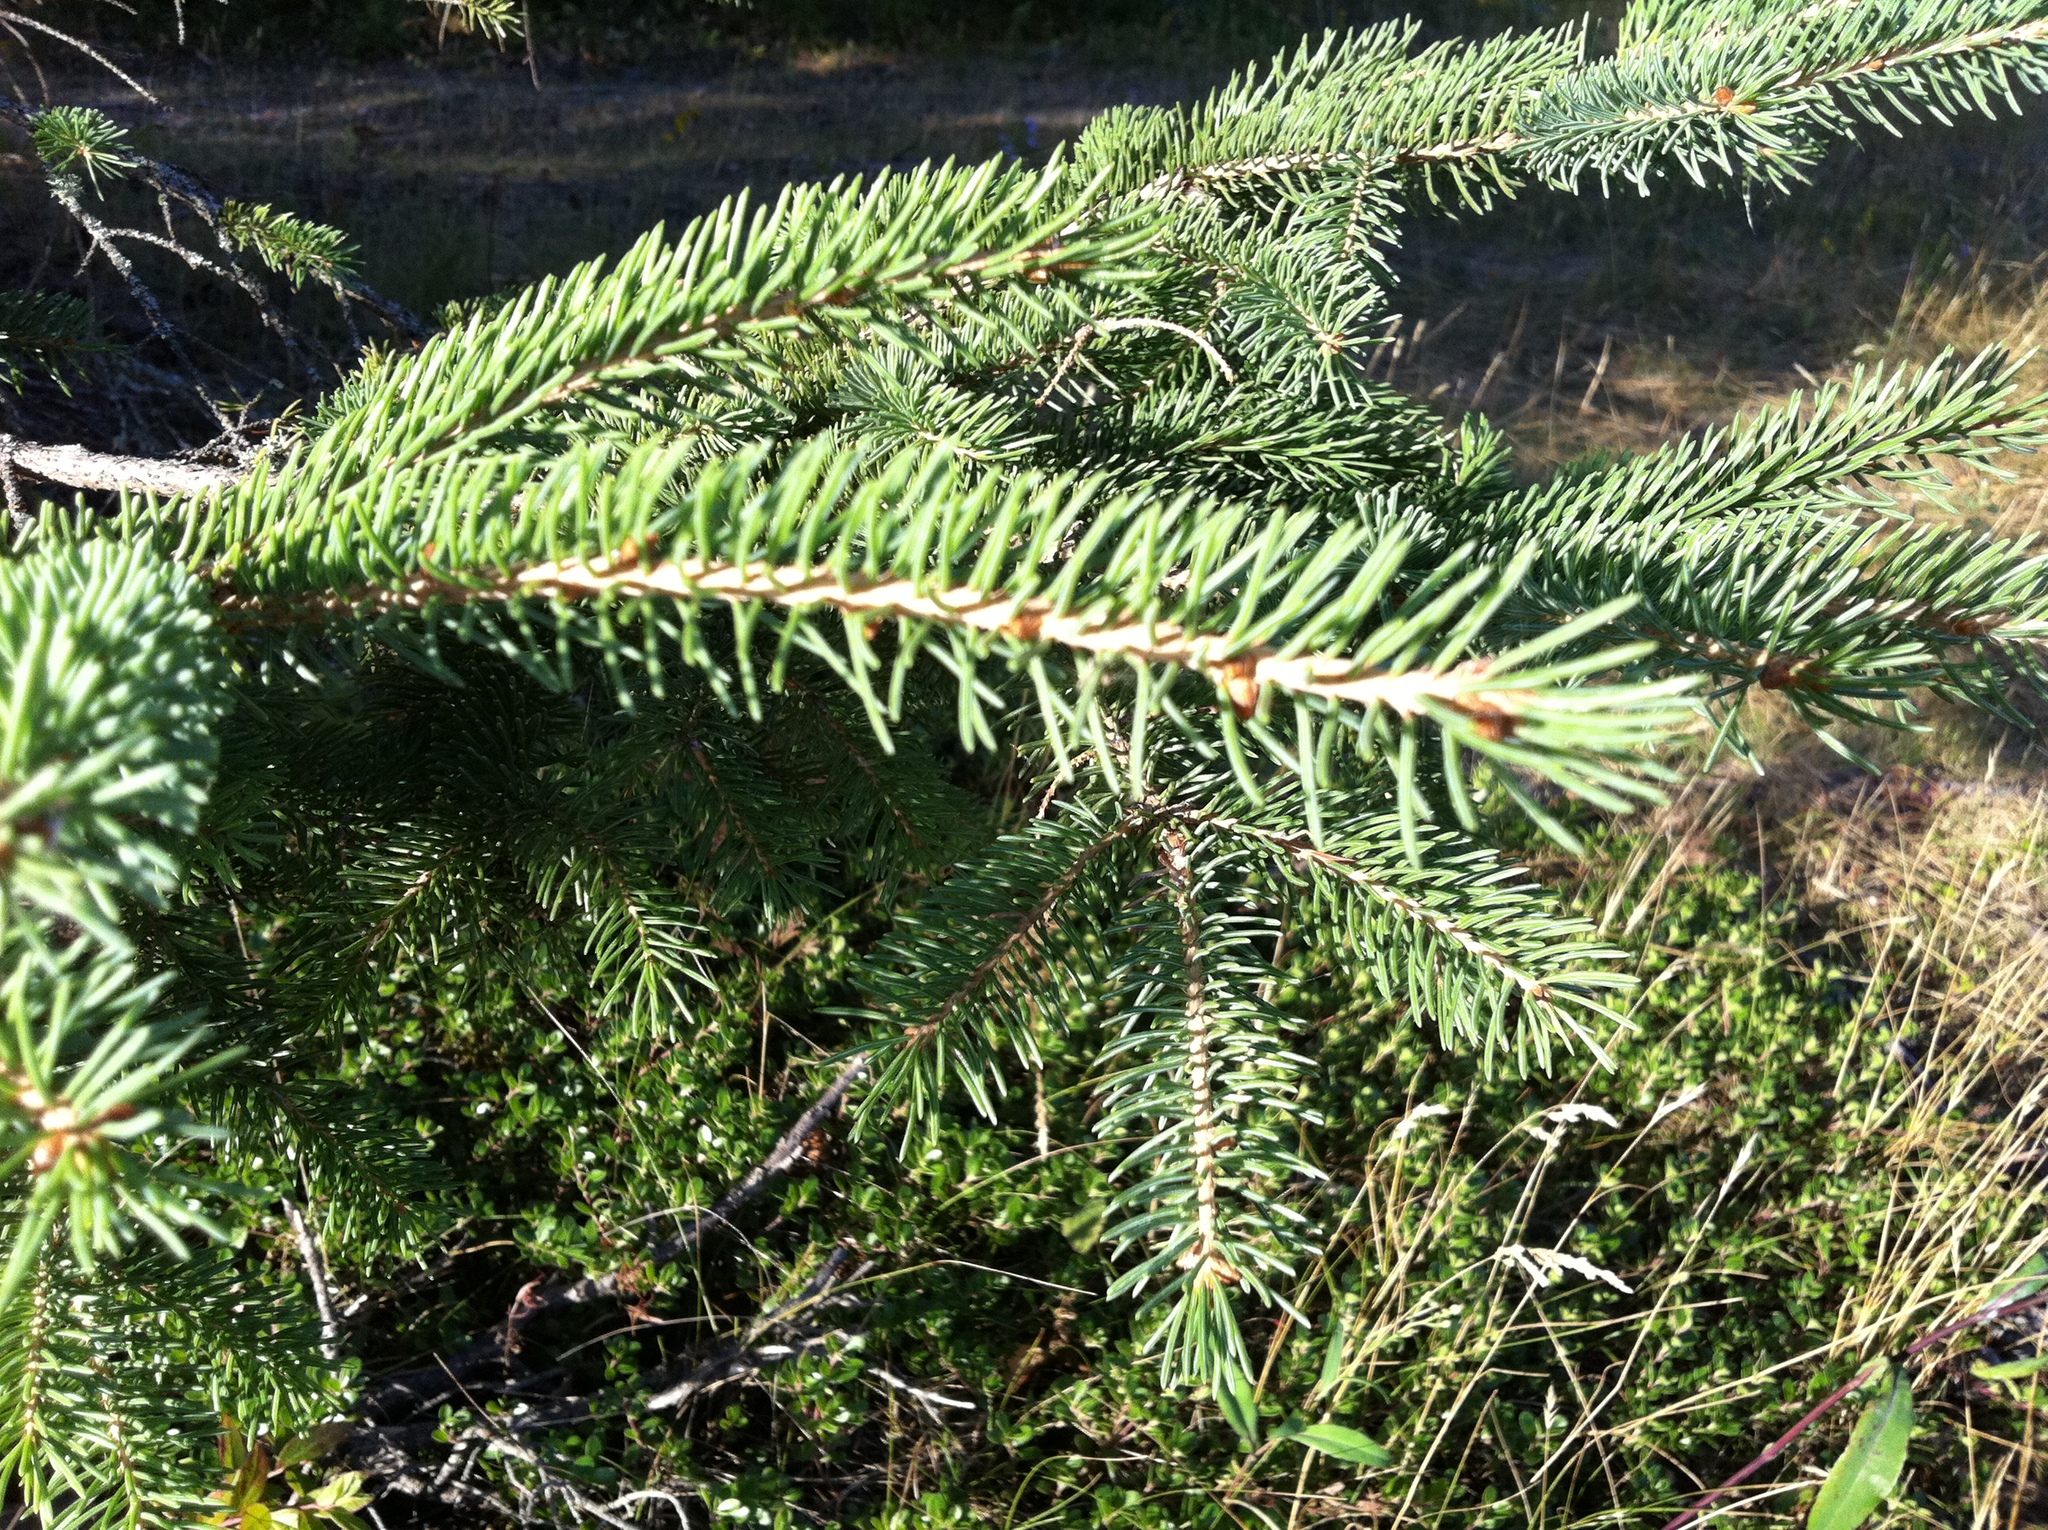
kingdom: Plantae
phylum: Tracheophyta
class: Pinopsida
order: Pinales
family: Pinaceae
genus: Picea
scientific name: Picea glauca
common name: White spruce
